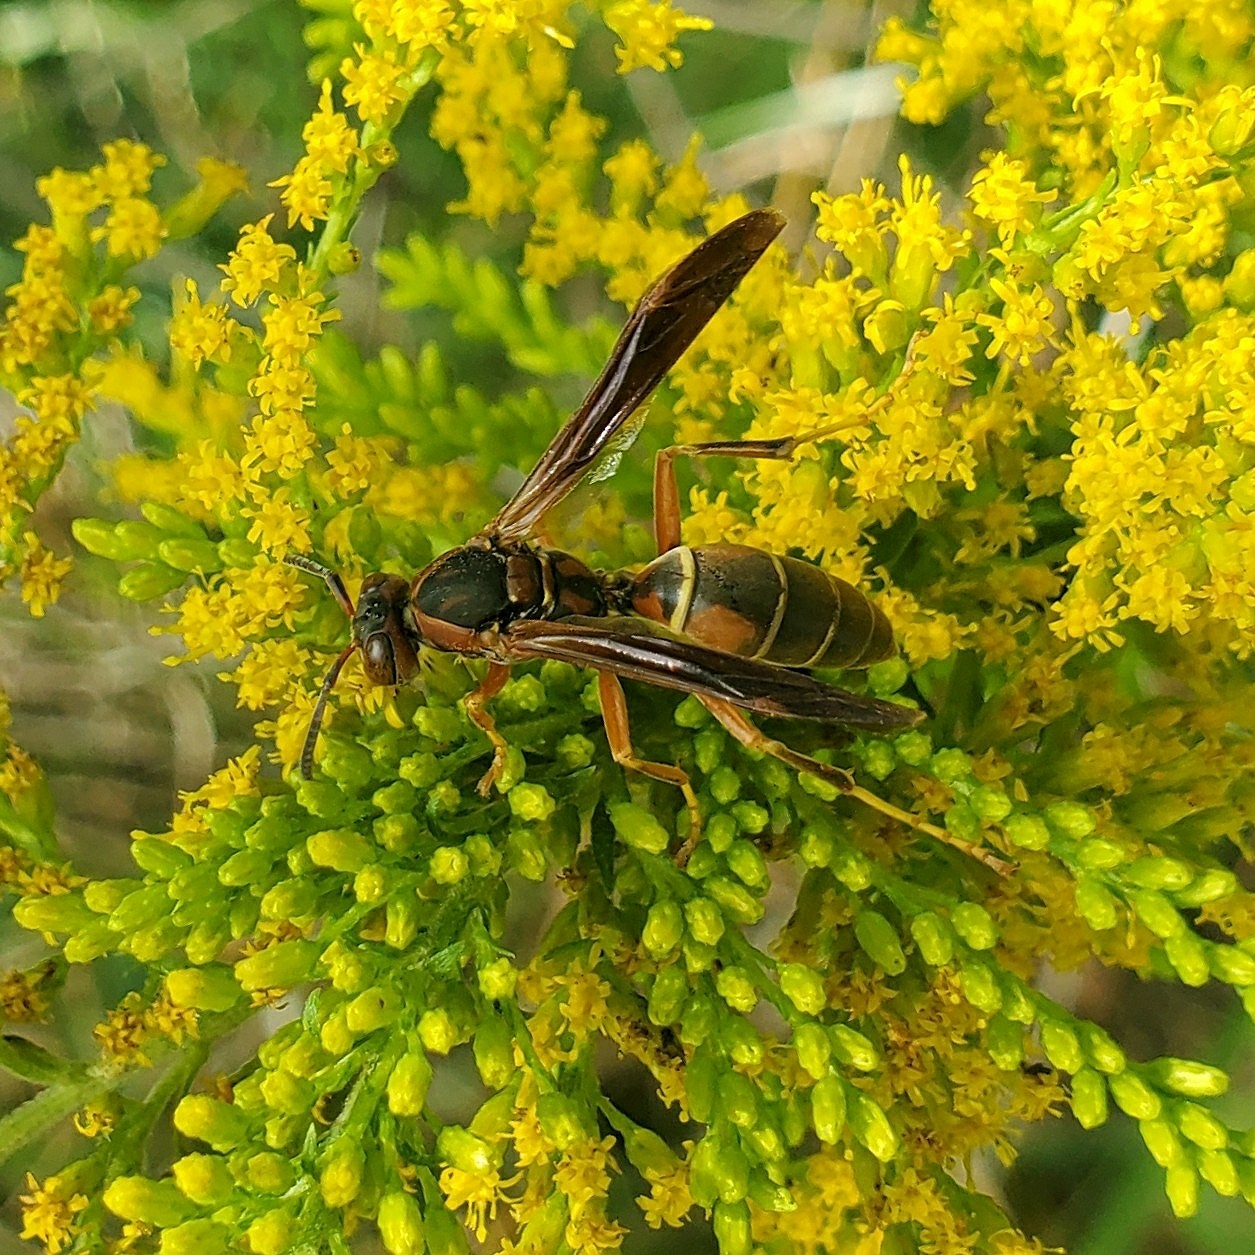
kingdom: Animalia
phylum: Arthropoda
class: Insecta
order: Hymenoptera
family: Eumenidae
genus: Polistes
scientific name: Polistes fuscatus
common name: Dark paper wasp
